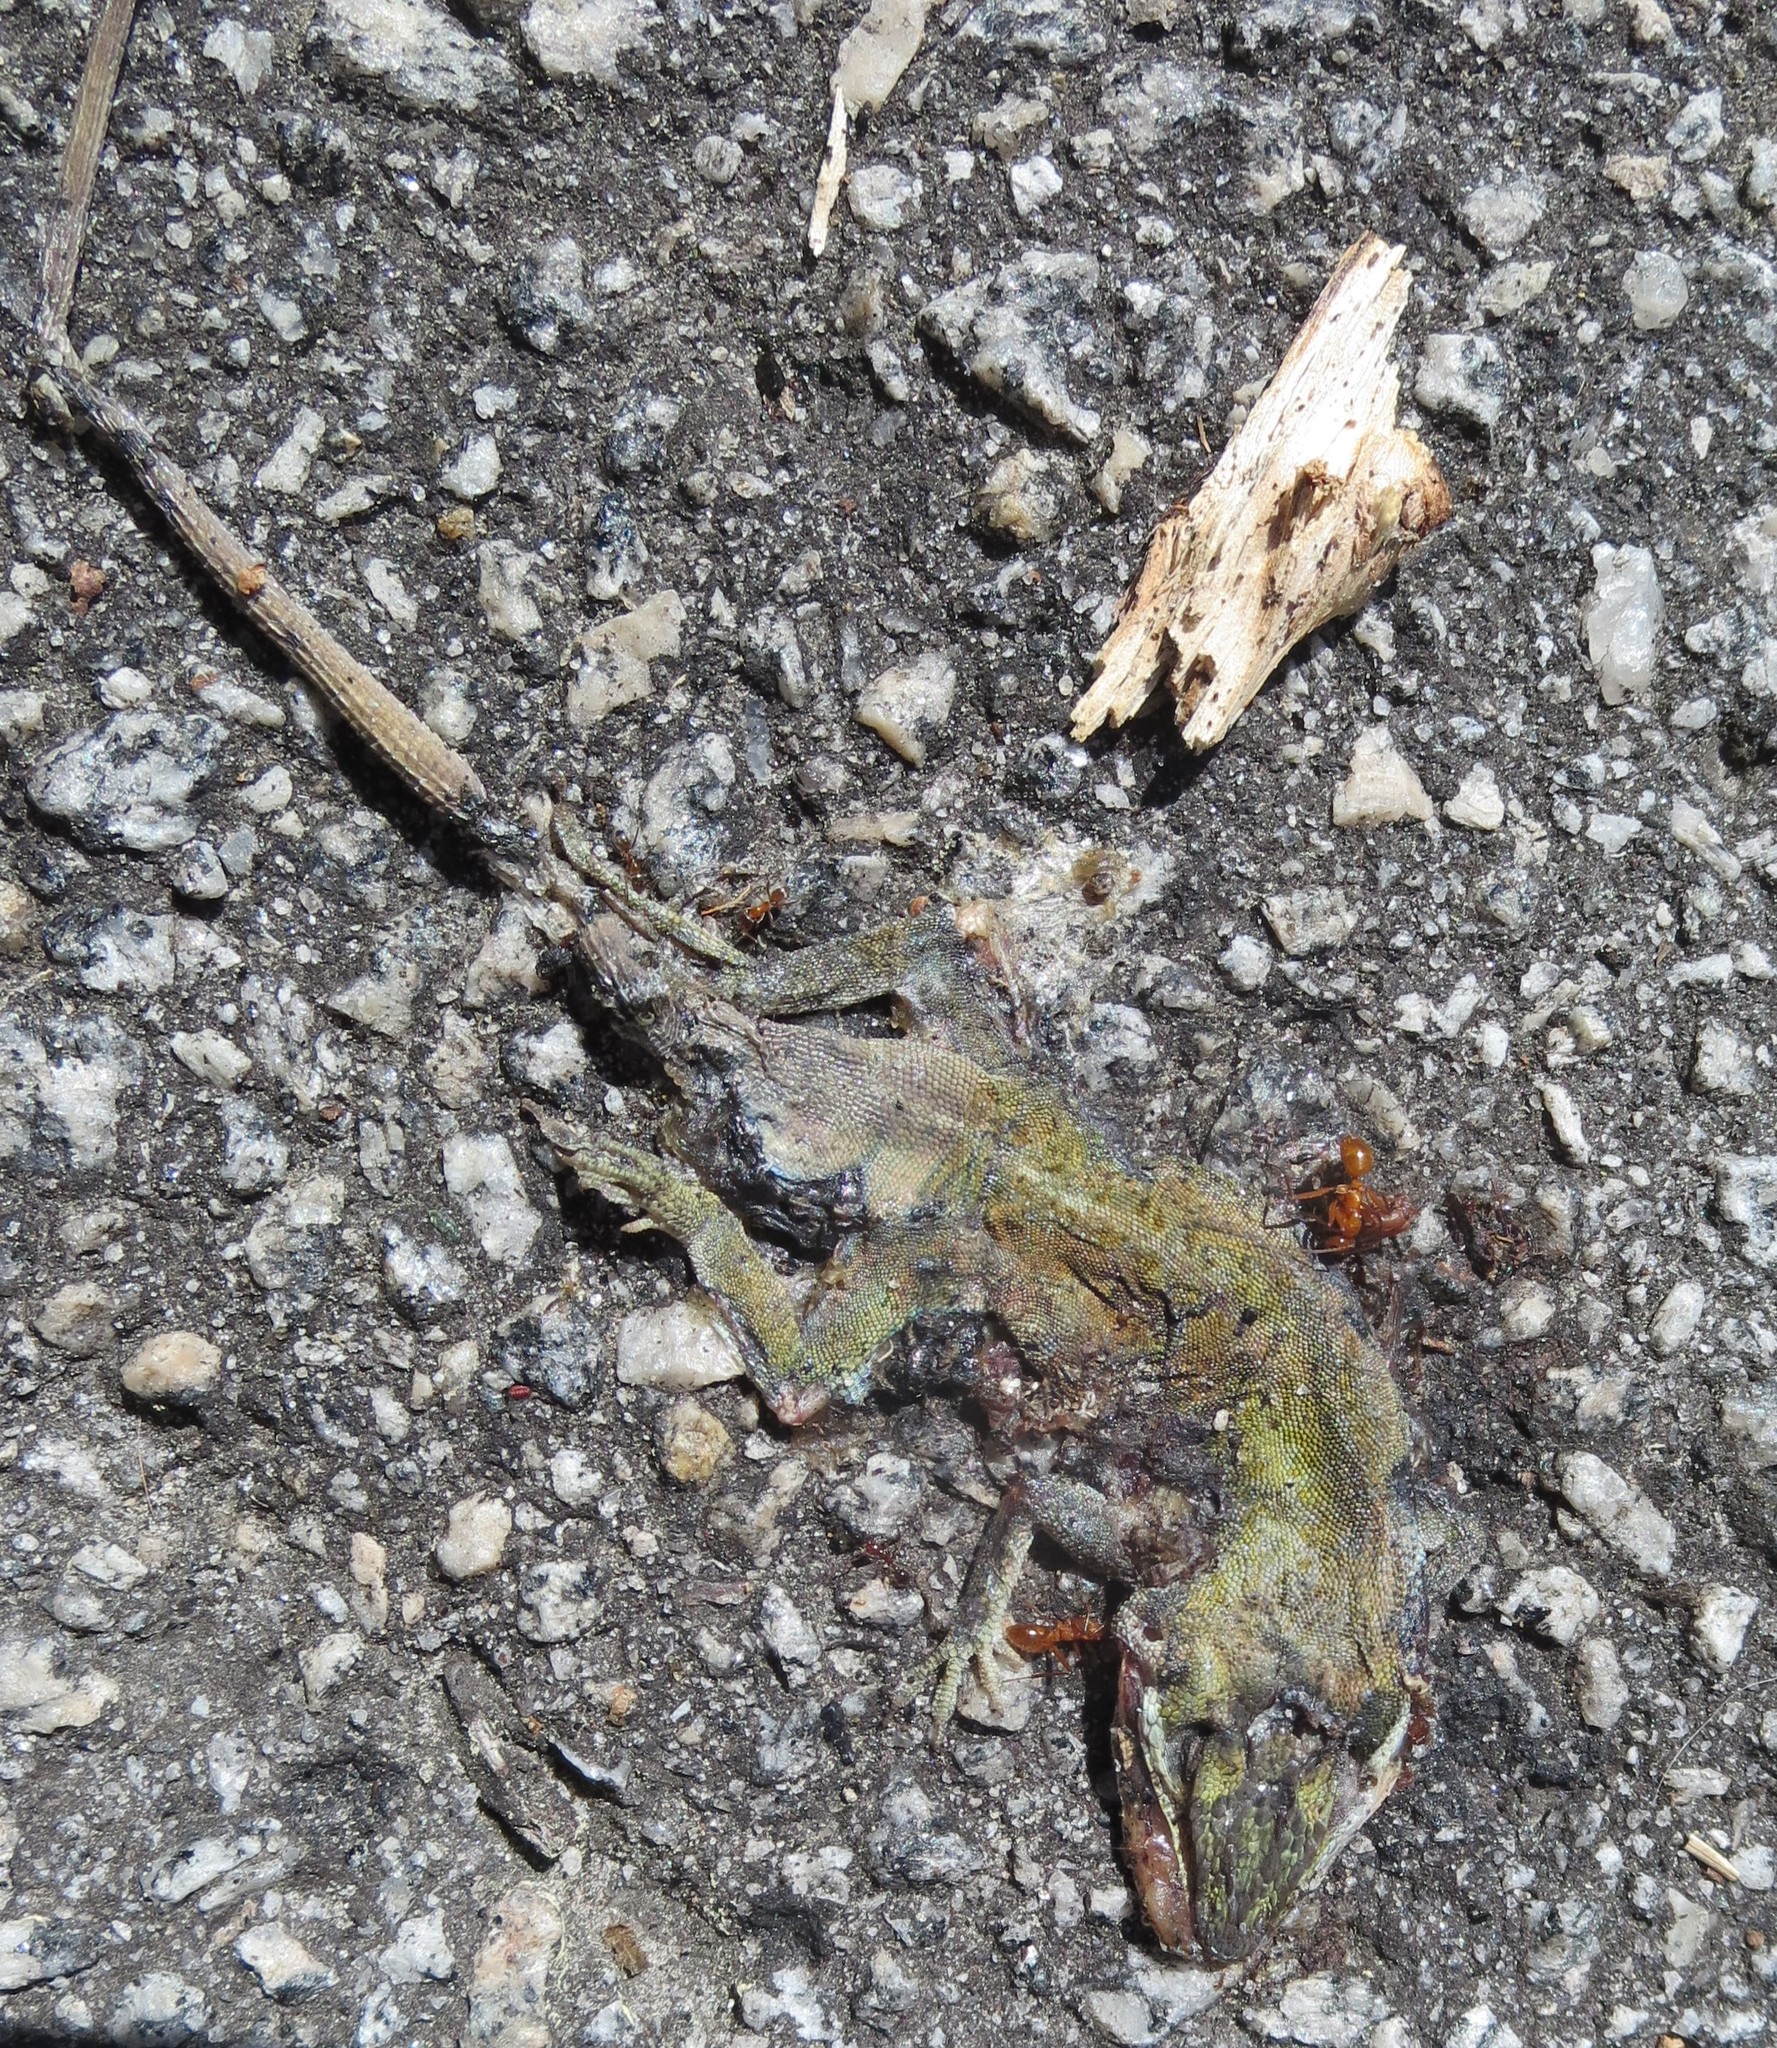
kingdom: Animalia
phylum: Chordata
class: Squamata
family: Dactyloidae
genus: Anolis
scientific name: Anolis carolinensis
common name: Green anole
